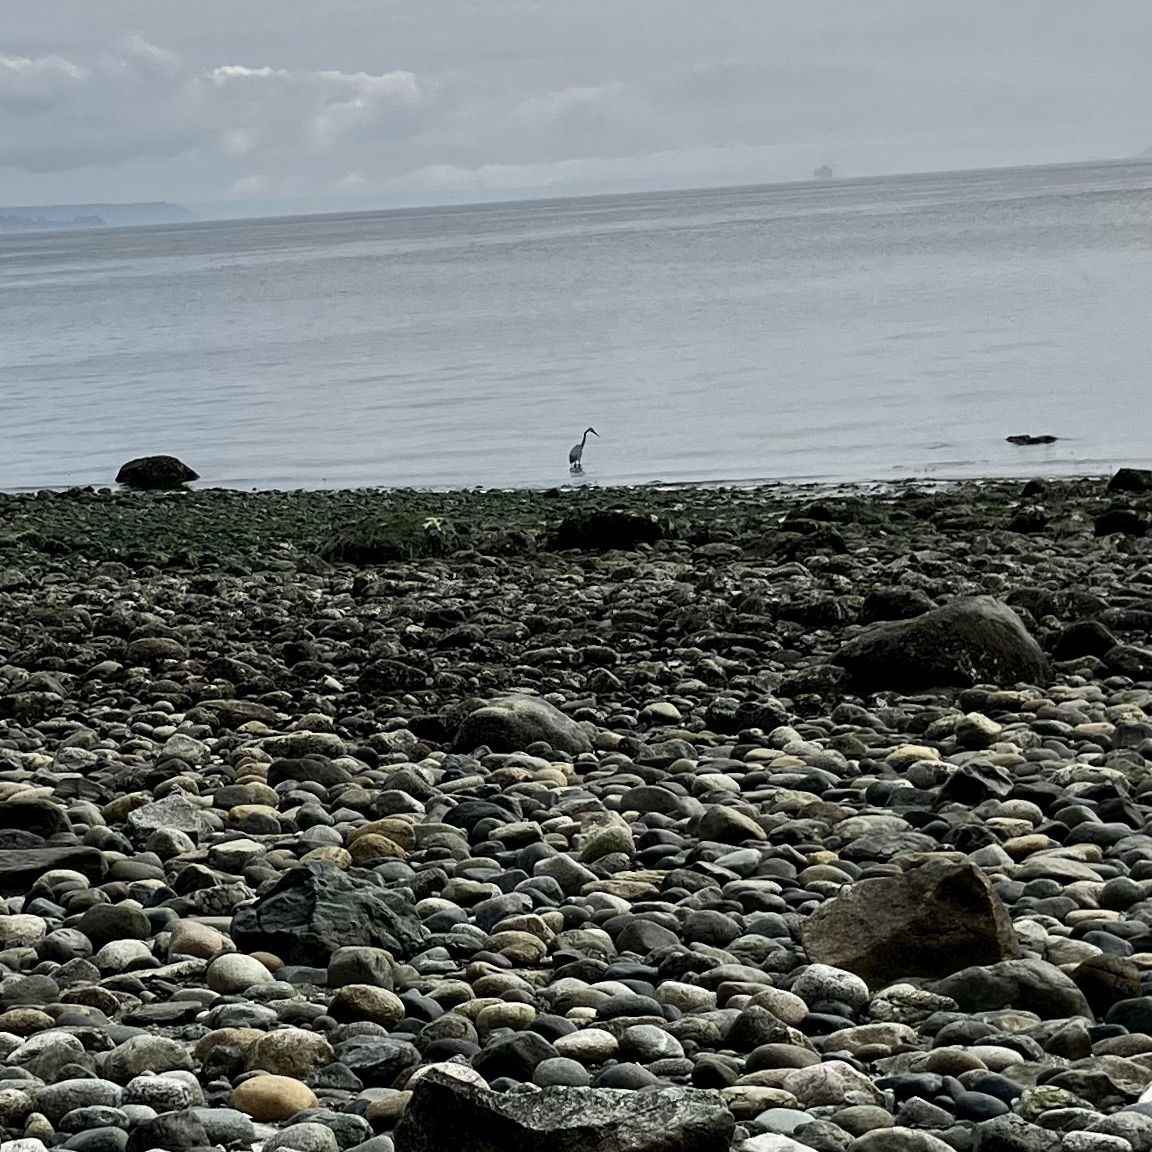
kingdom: Animalia
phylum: Chordata
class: Aves
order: Pelecaniformes
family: Ardeidae
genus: Ardea
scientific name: Ardea herodias
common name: Great blue heron
